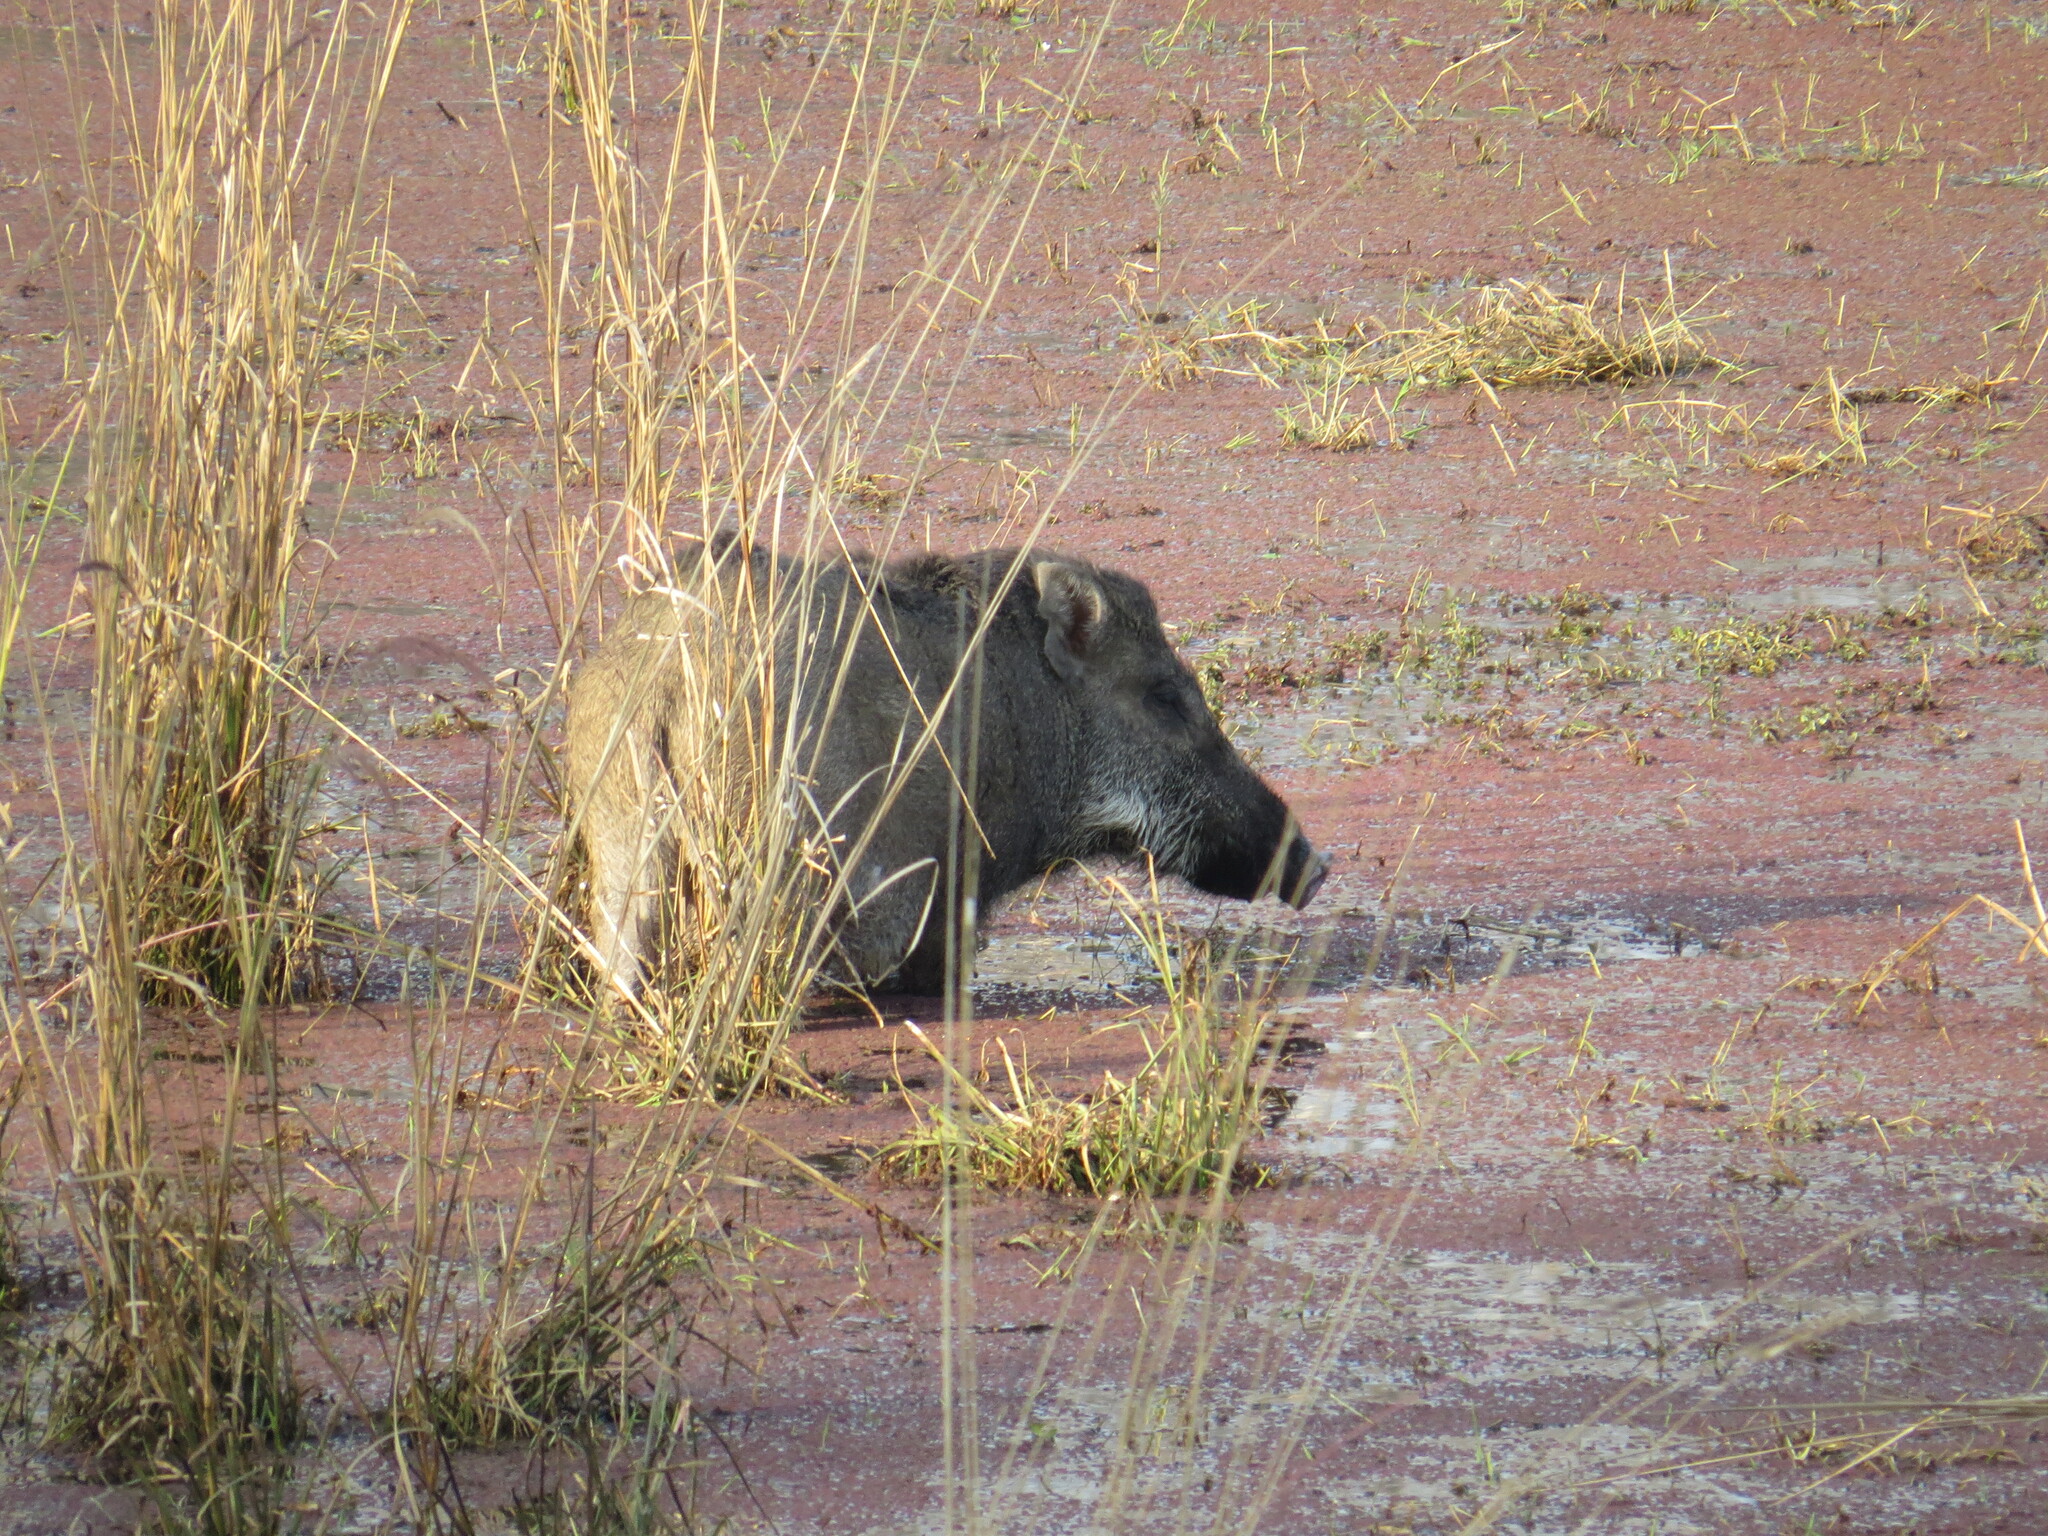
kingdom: Animalia
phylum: Chordata
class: Mammalia
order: Artiodactyla
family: Suidae
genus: Sus
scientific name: Sus scrofa
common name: Wild boar
